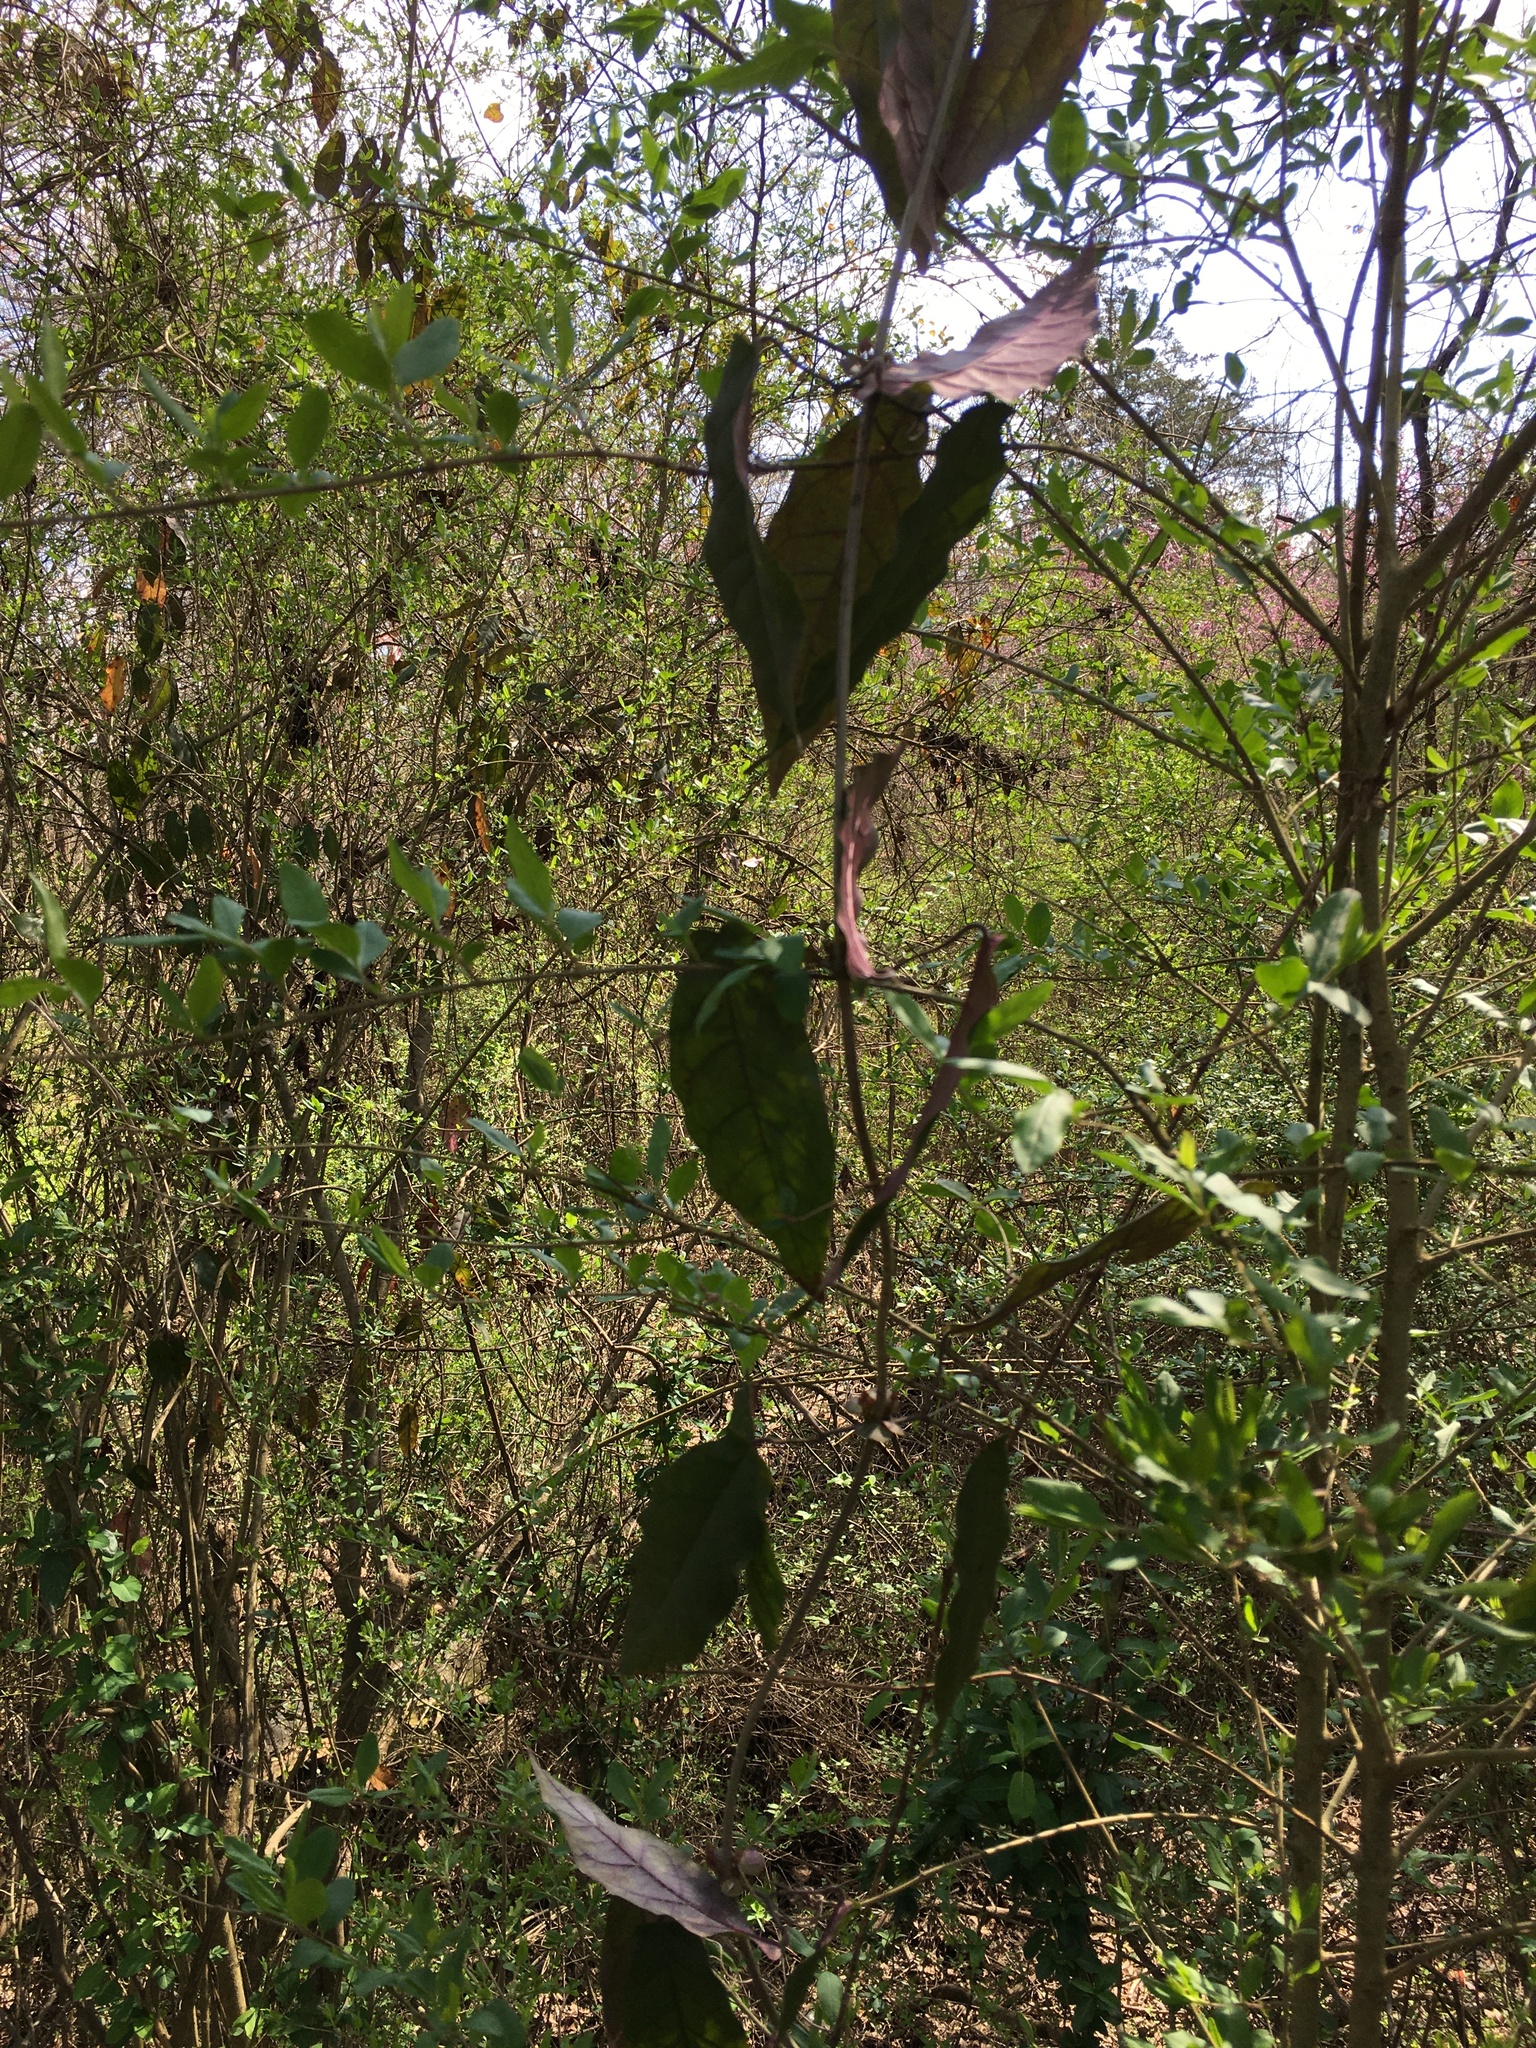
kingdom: Plantae
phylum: Tracheophyta
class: Magnoliopsida
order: Lamiales
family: Bignoniaceae
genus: Bignonia
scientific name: Bignonia capreolata
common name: Crossvine
